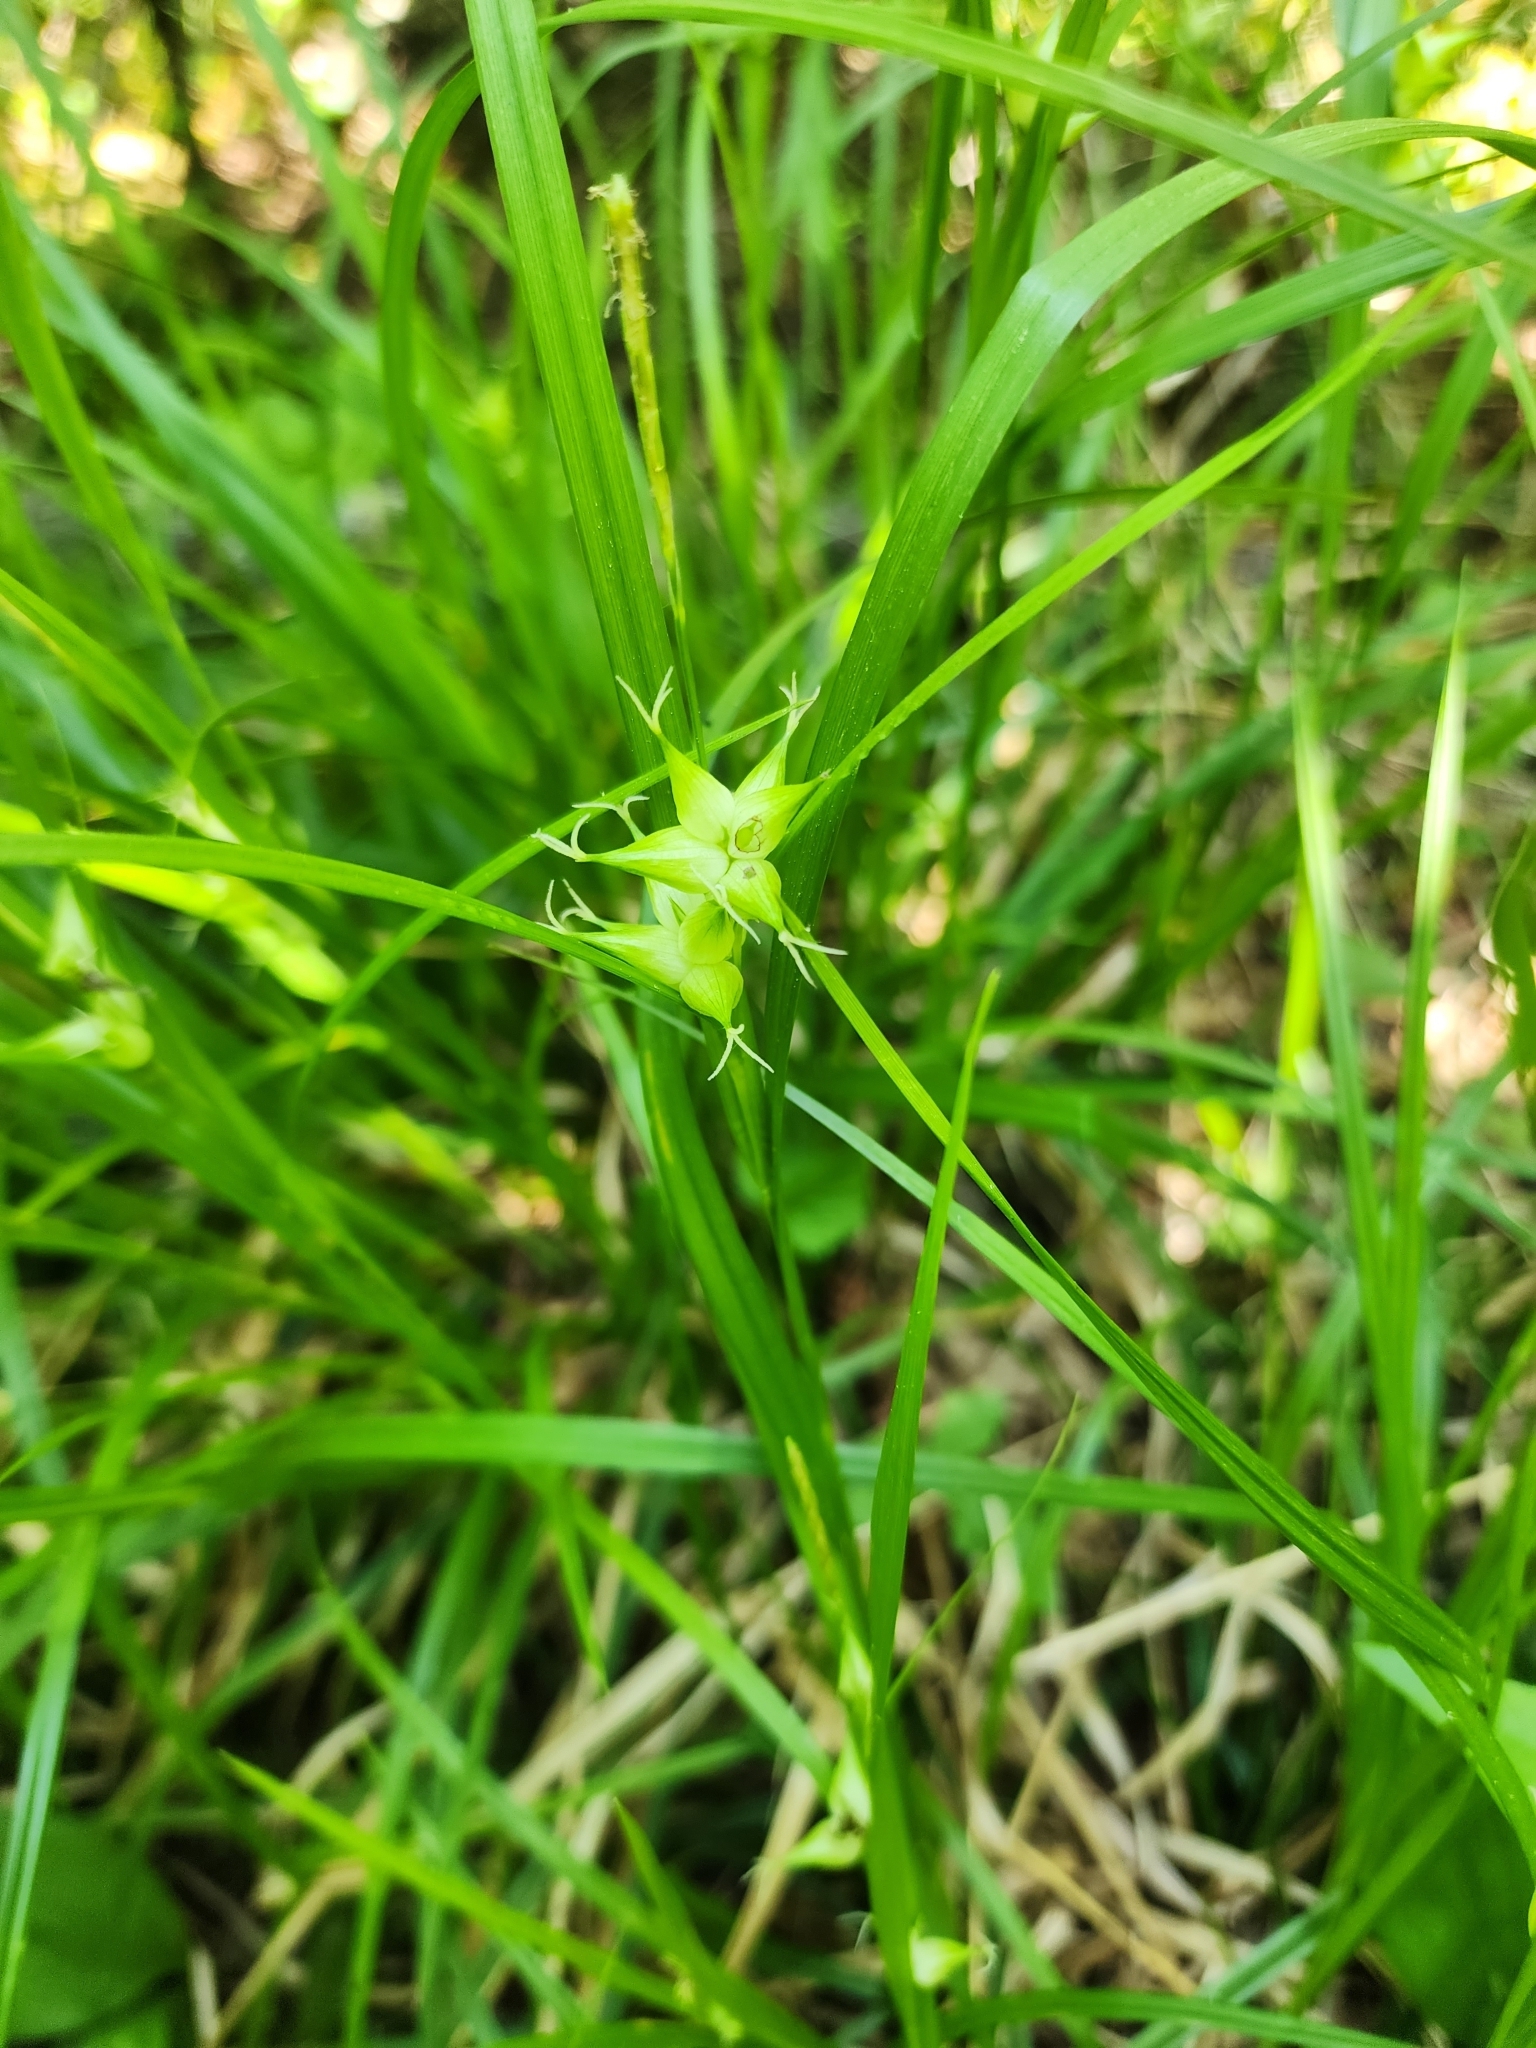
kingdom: Plantae
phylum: Tracheophyta
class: Liliopsida
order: Poales
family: Cyperaceae
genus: Carex
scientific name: Carex intumescens
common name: Greater bladder sedge
